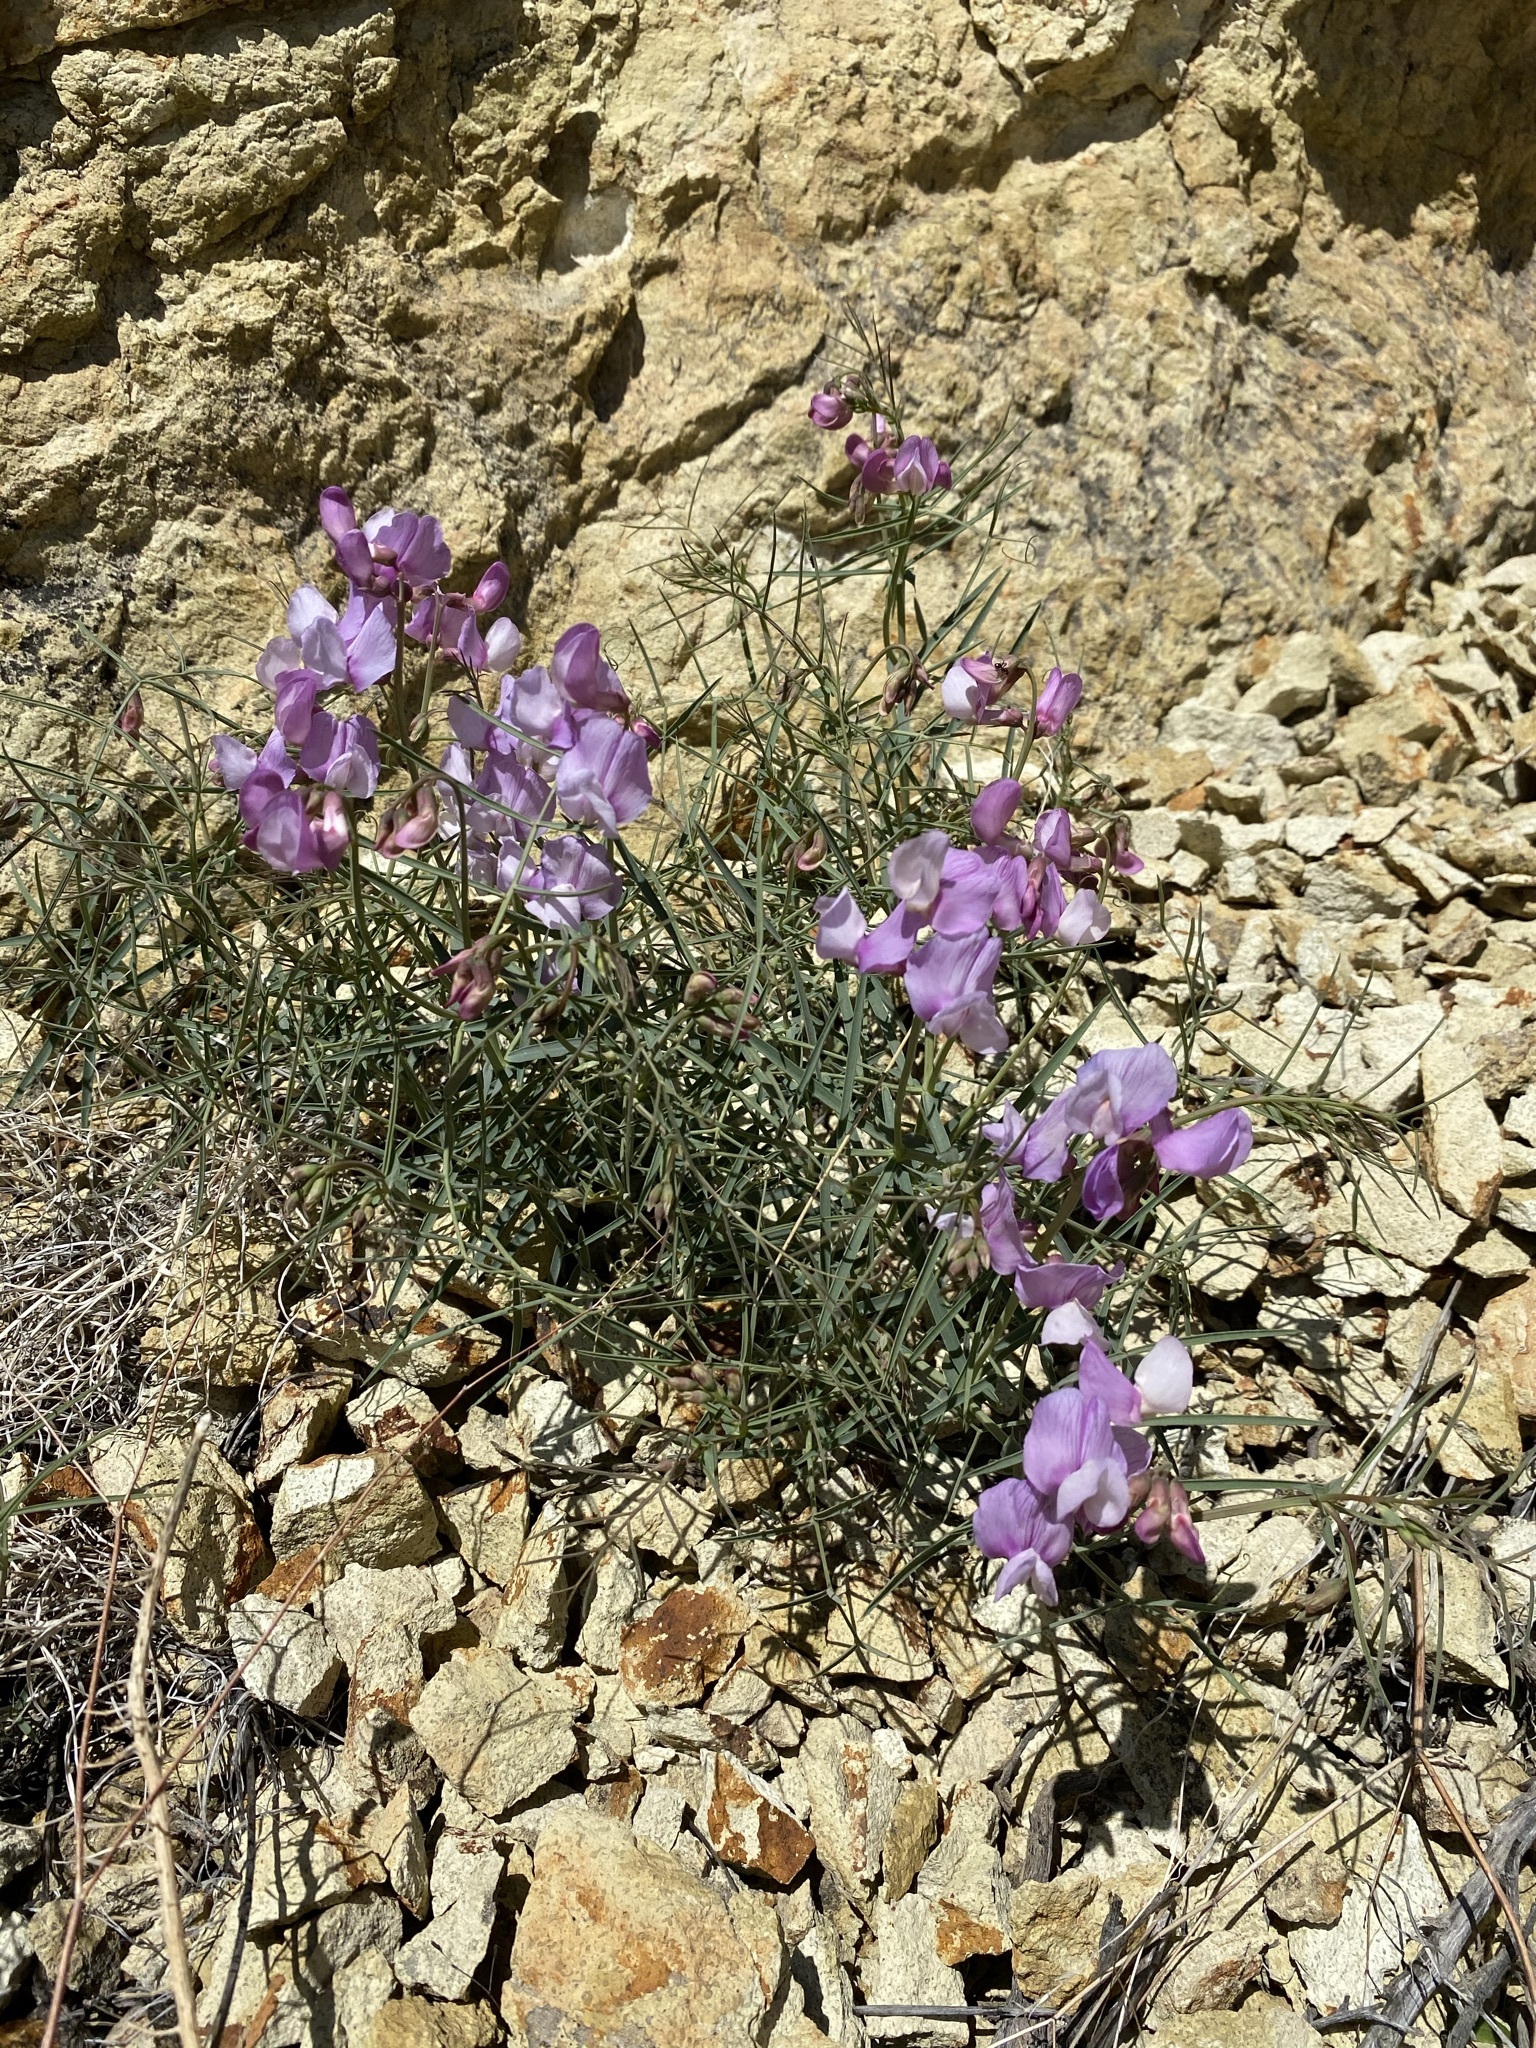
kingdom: Plantae
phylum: Tracheophyta
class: Magnoliopsida
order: Fabales
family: Fabaceae
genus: Lathyrus
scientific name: Lathyrus pauciflorus
